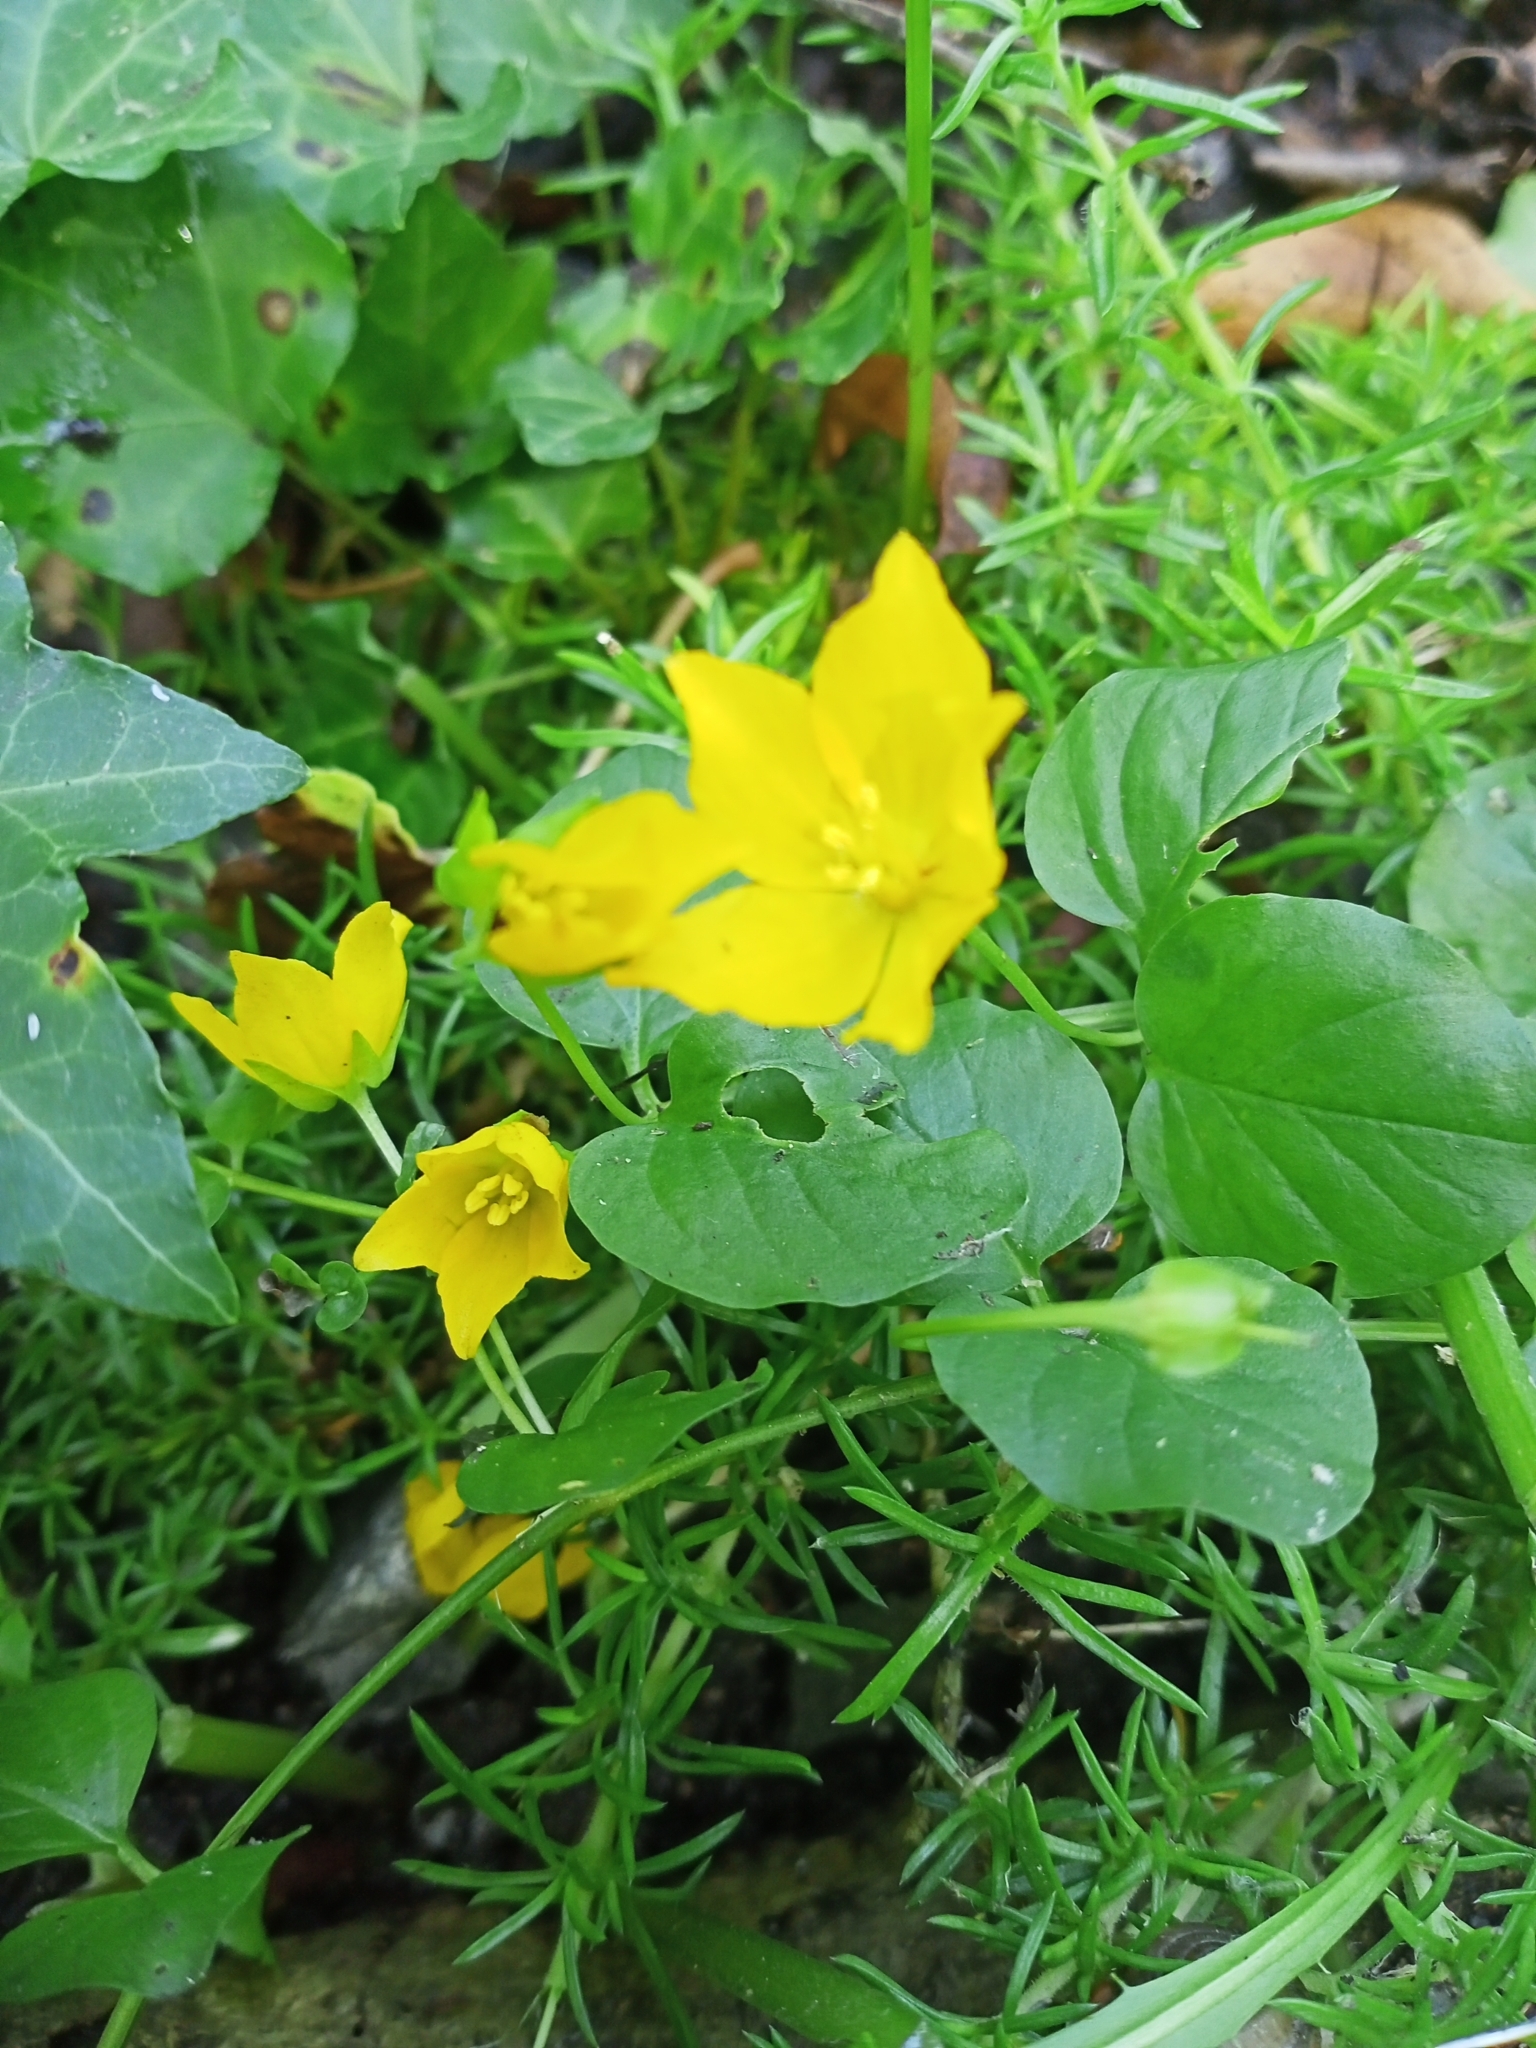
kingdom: Plantae
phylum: Tracheophyta
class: Magnoliopsida
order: Ericales
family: Primulaceae
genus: Lysimachia
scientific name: Lysimachia nummularia
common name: Moneywort
